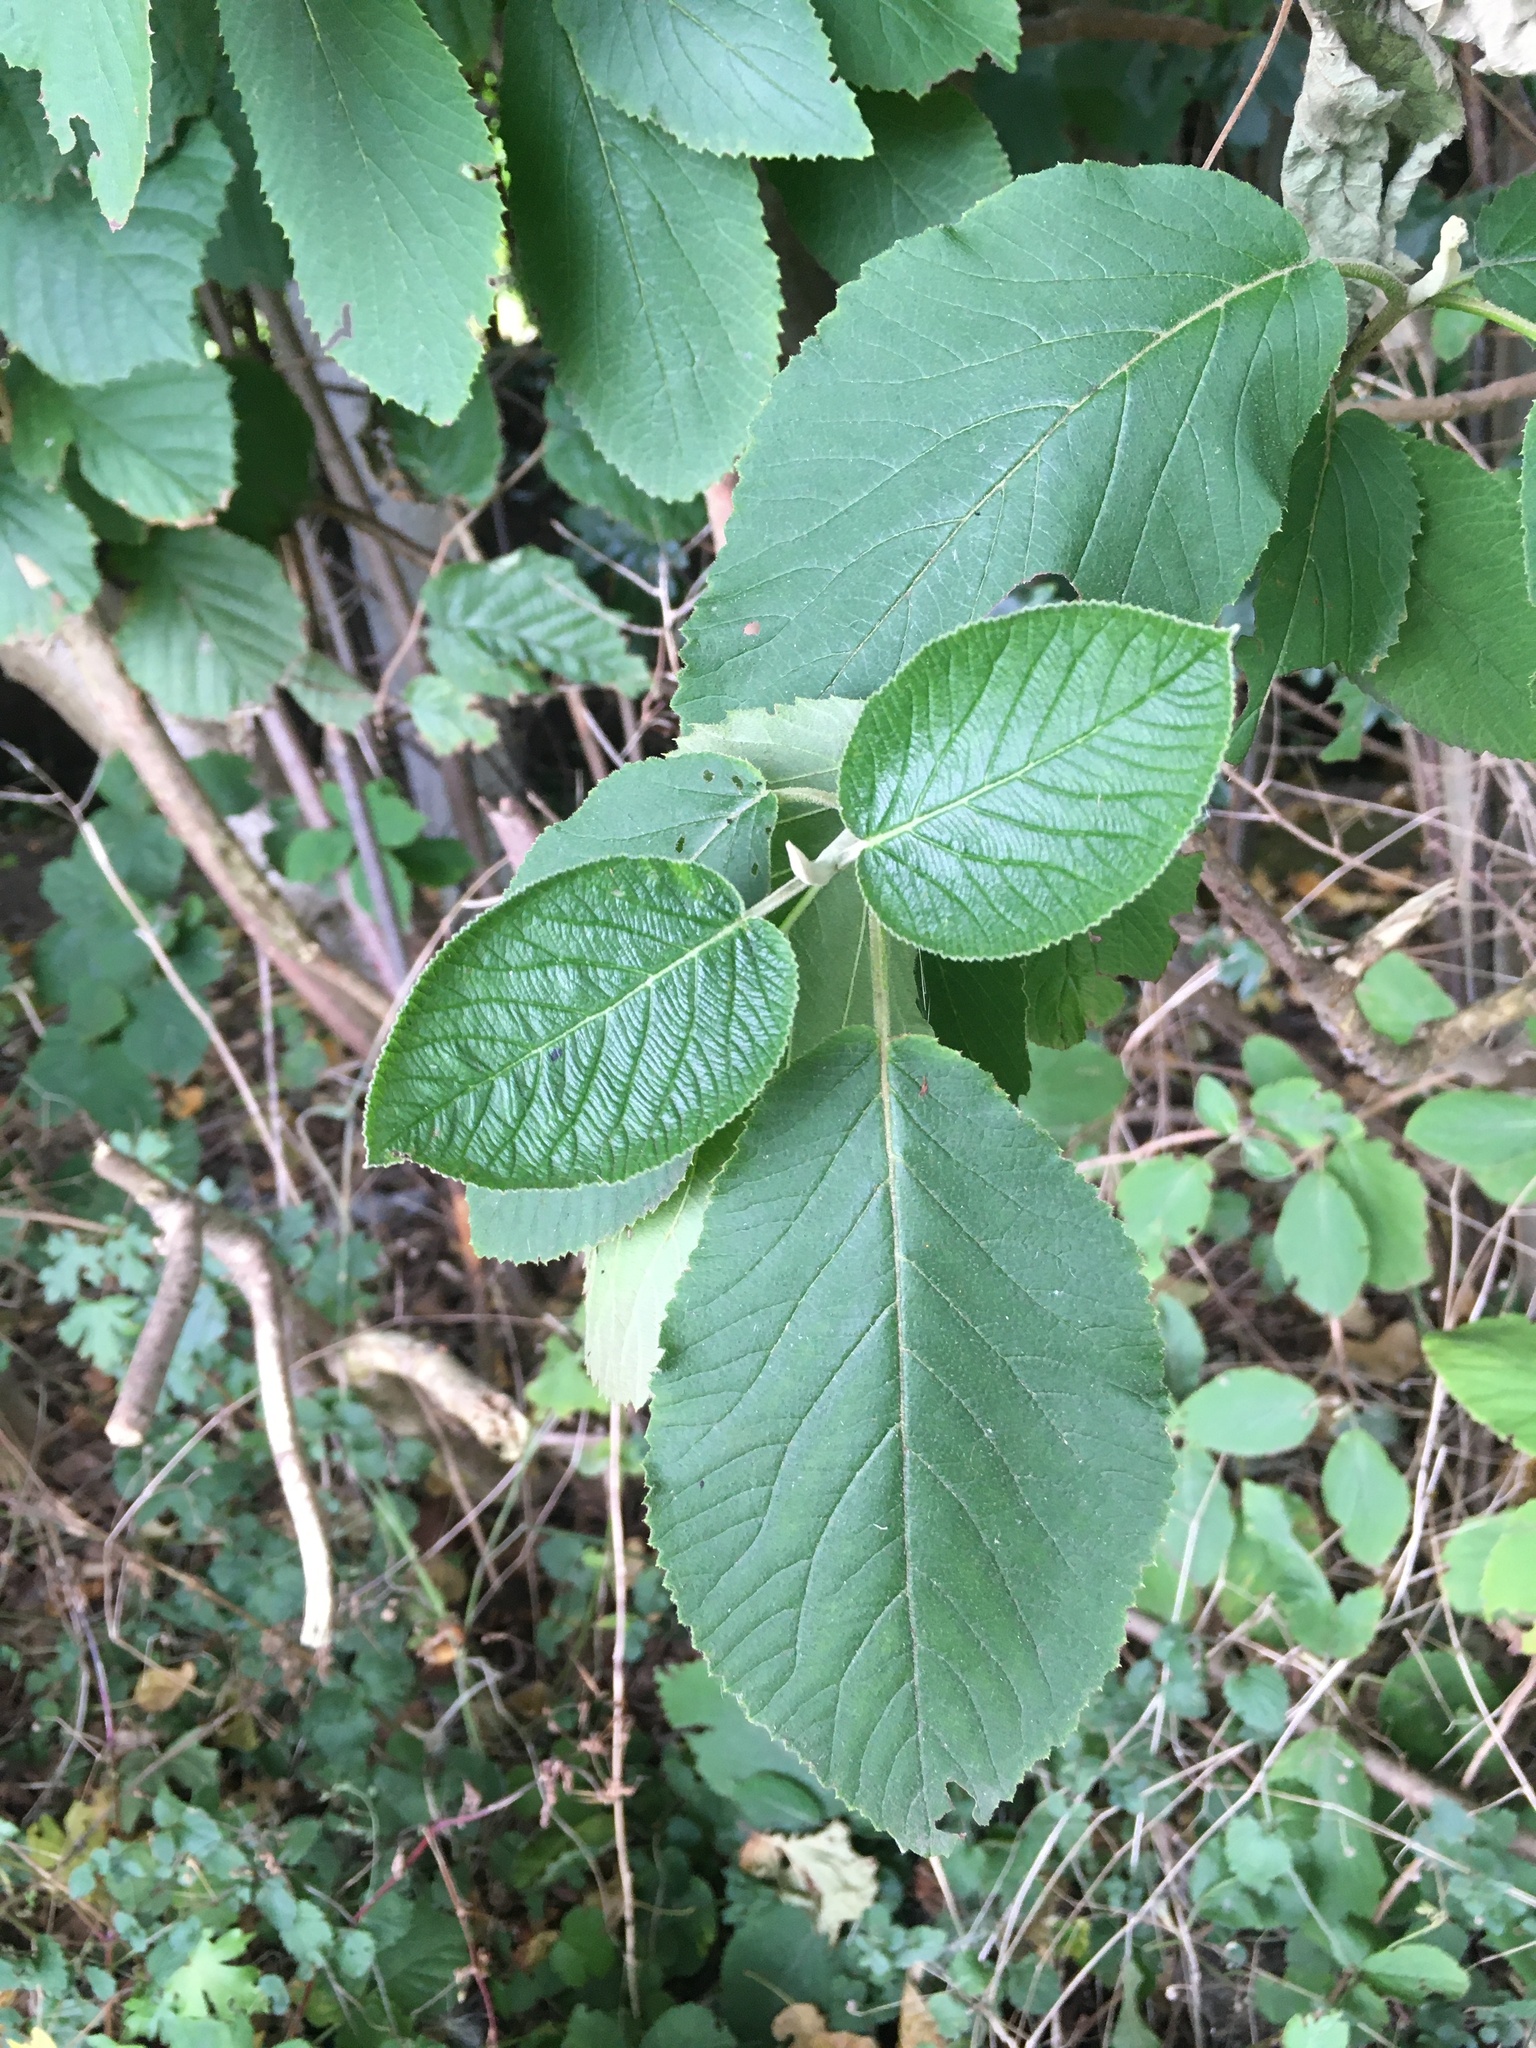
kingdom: Plantae
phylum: Tracheophyta
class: Magnoliopsida
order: Dipsacales
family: Viburnaceae
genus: Viburnum
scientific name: Viburnum lantana
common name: Wayfaring tree
